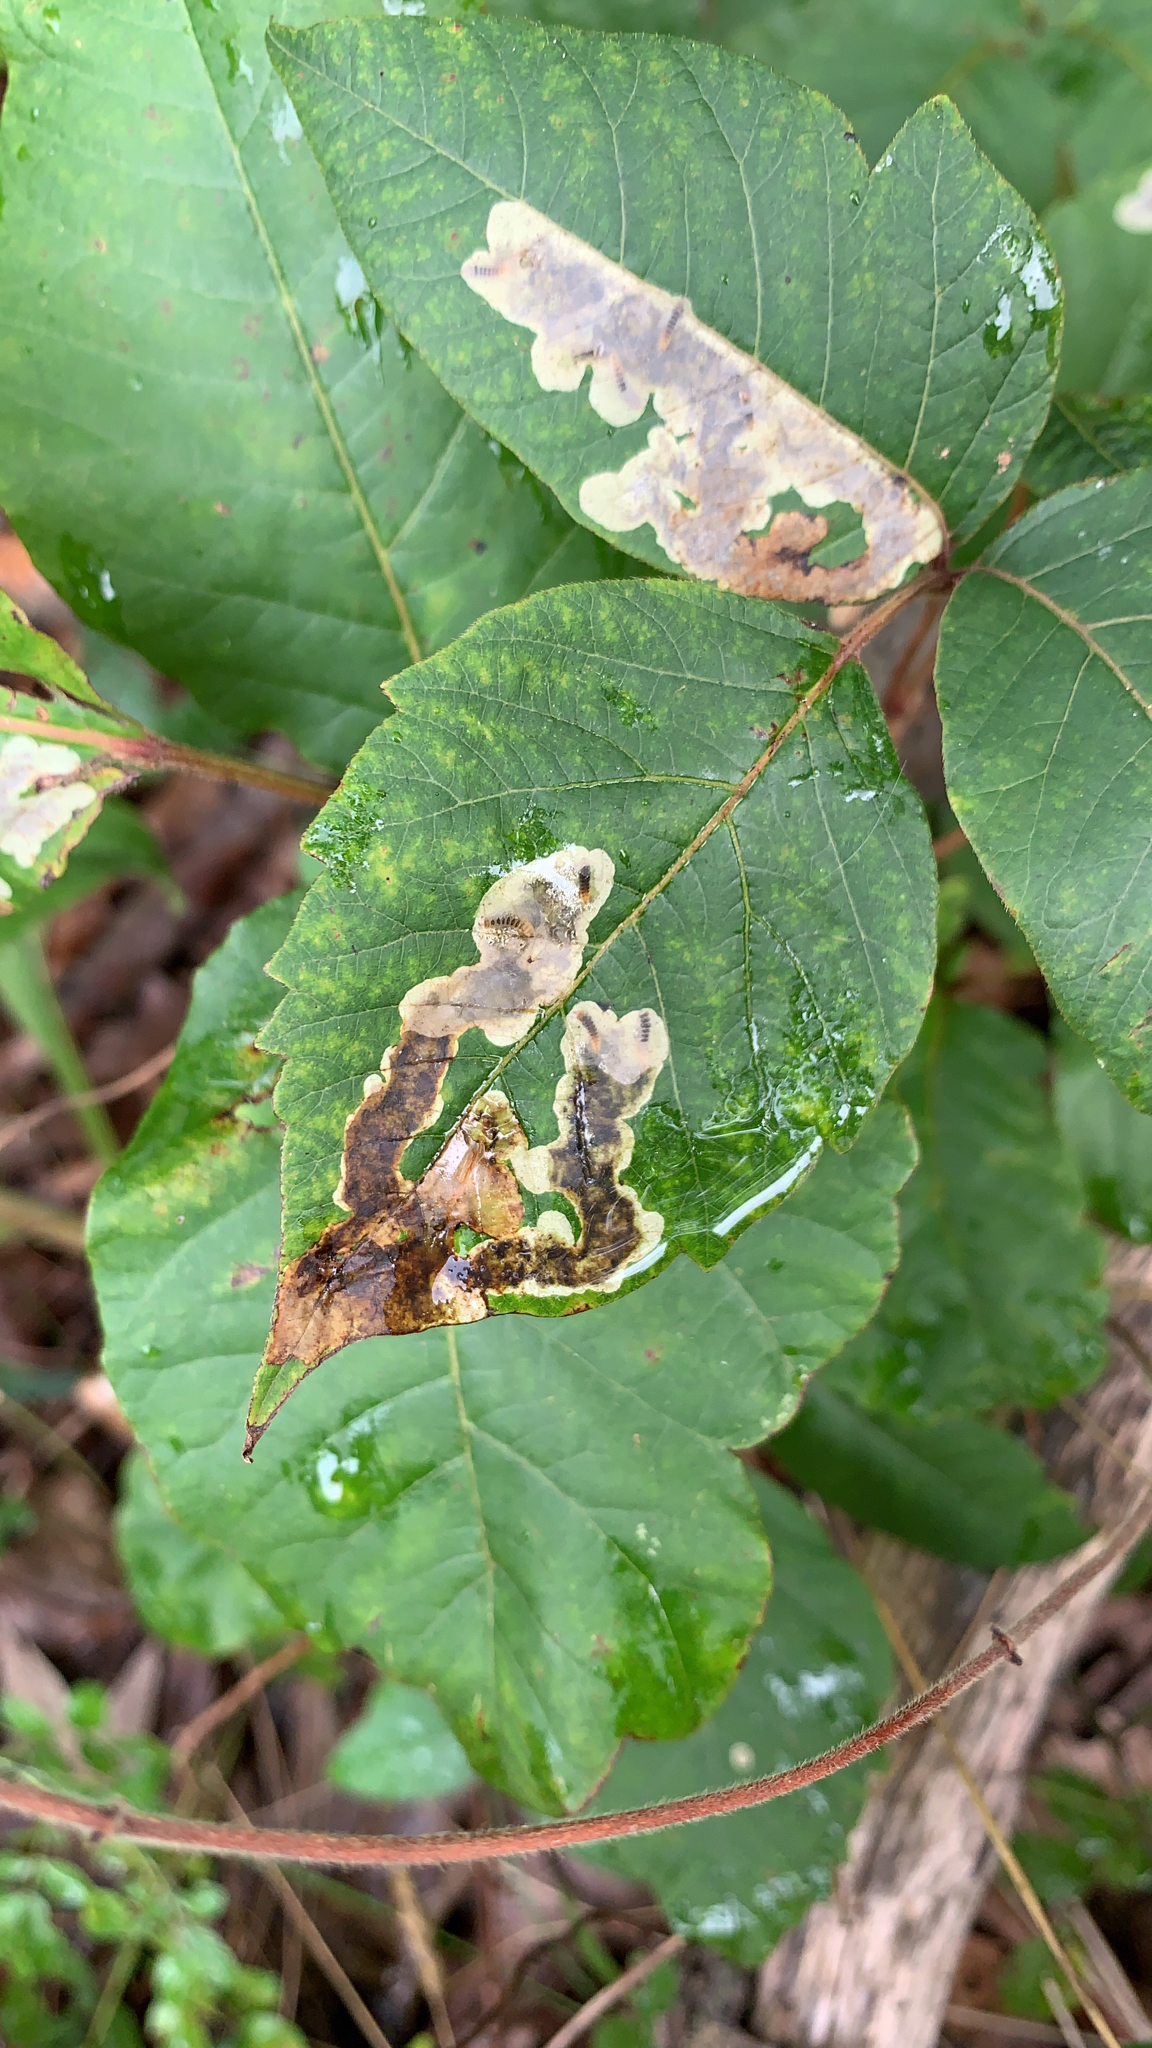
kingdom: Animalia
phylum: Arthropoda
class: Insecta
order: Lepidoptera
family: Gracillariidae
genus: Cameraria
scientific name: Cameraria guttifinitella
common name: Poison ivy leaf-miner moth
